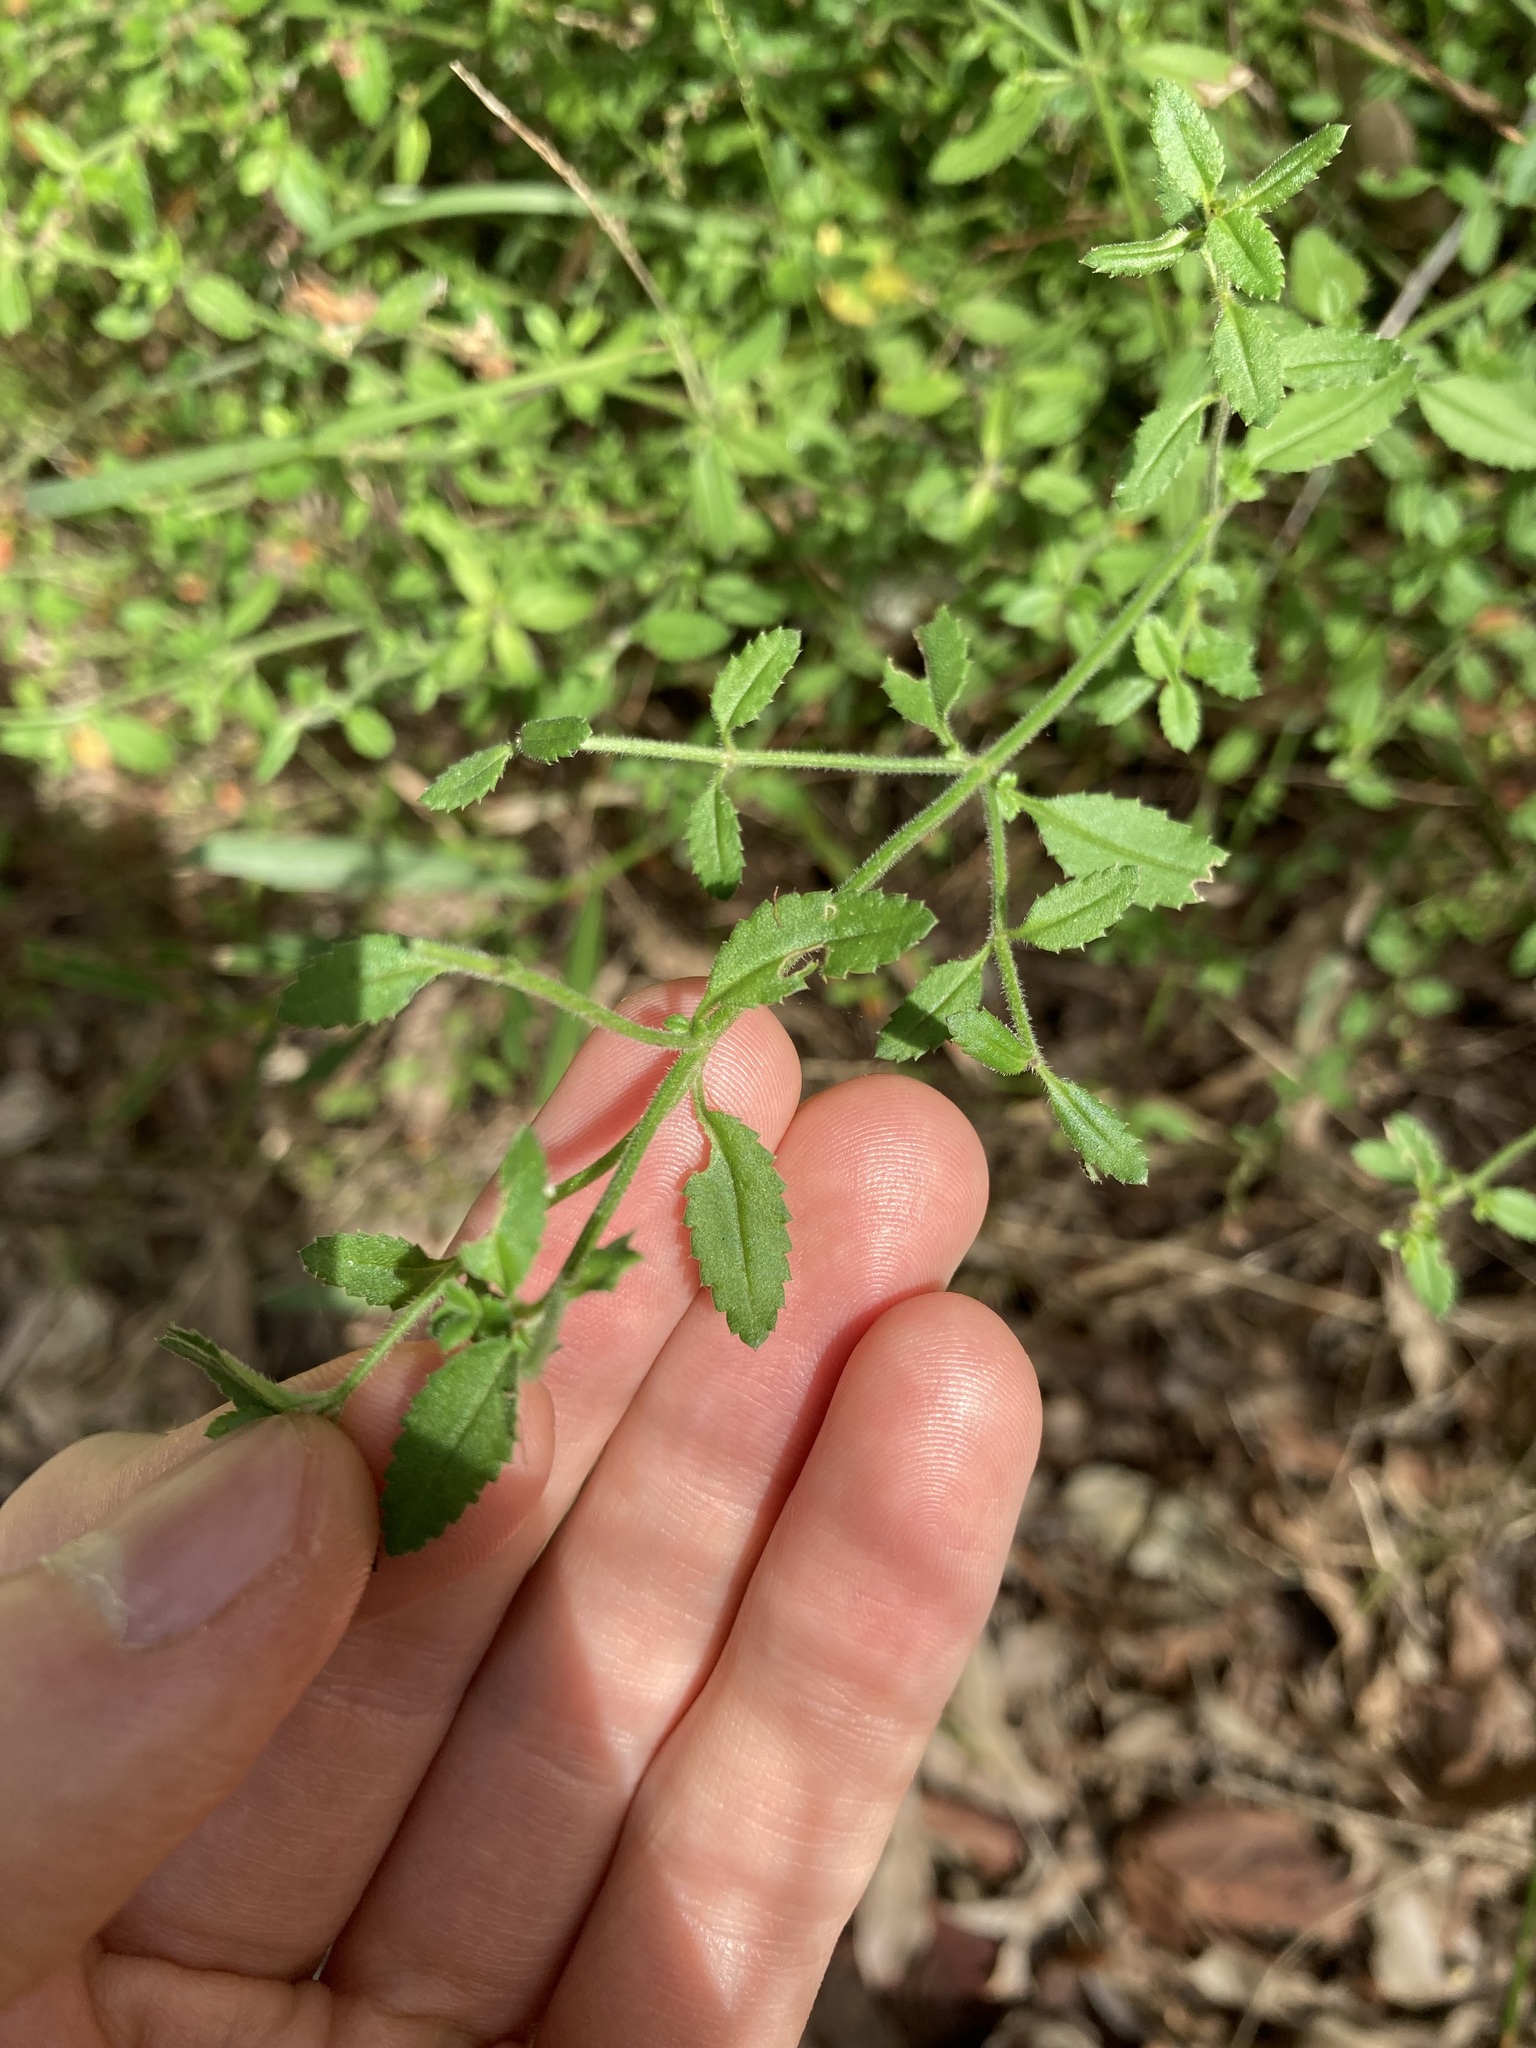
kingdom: Plantae
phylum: Tracheophyta
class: Magnoliopsida
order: Saxifragales
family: Haloragaceae
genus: Gonocarpus
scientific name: Gonocarpus tetragynus
